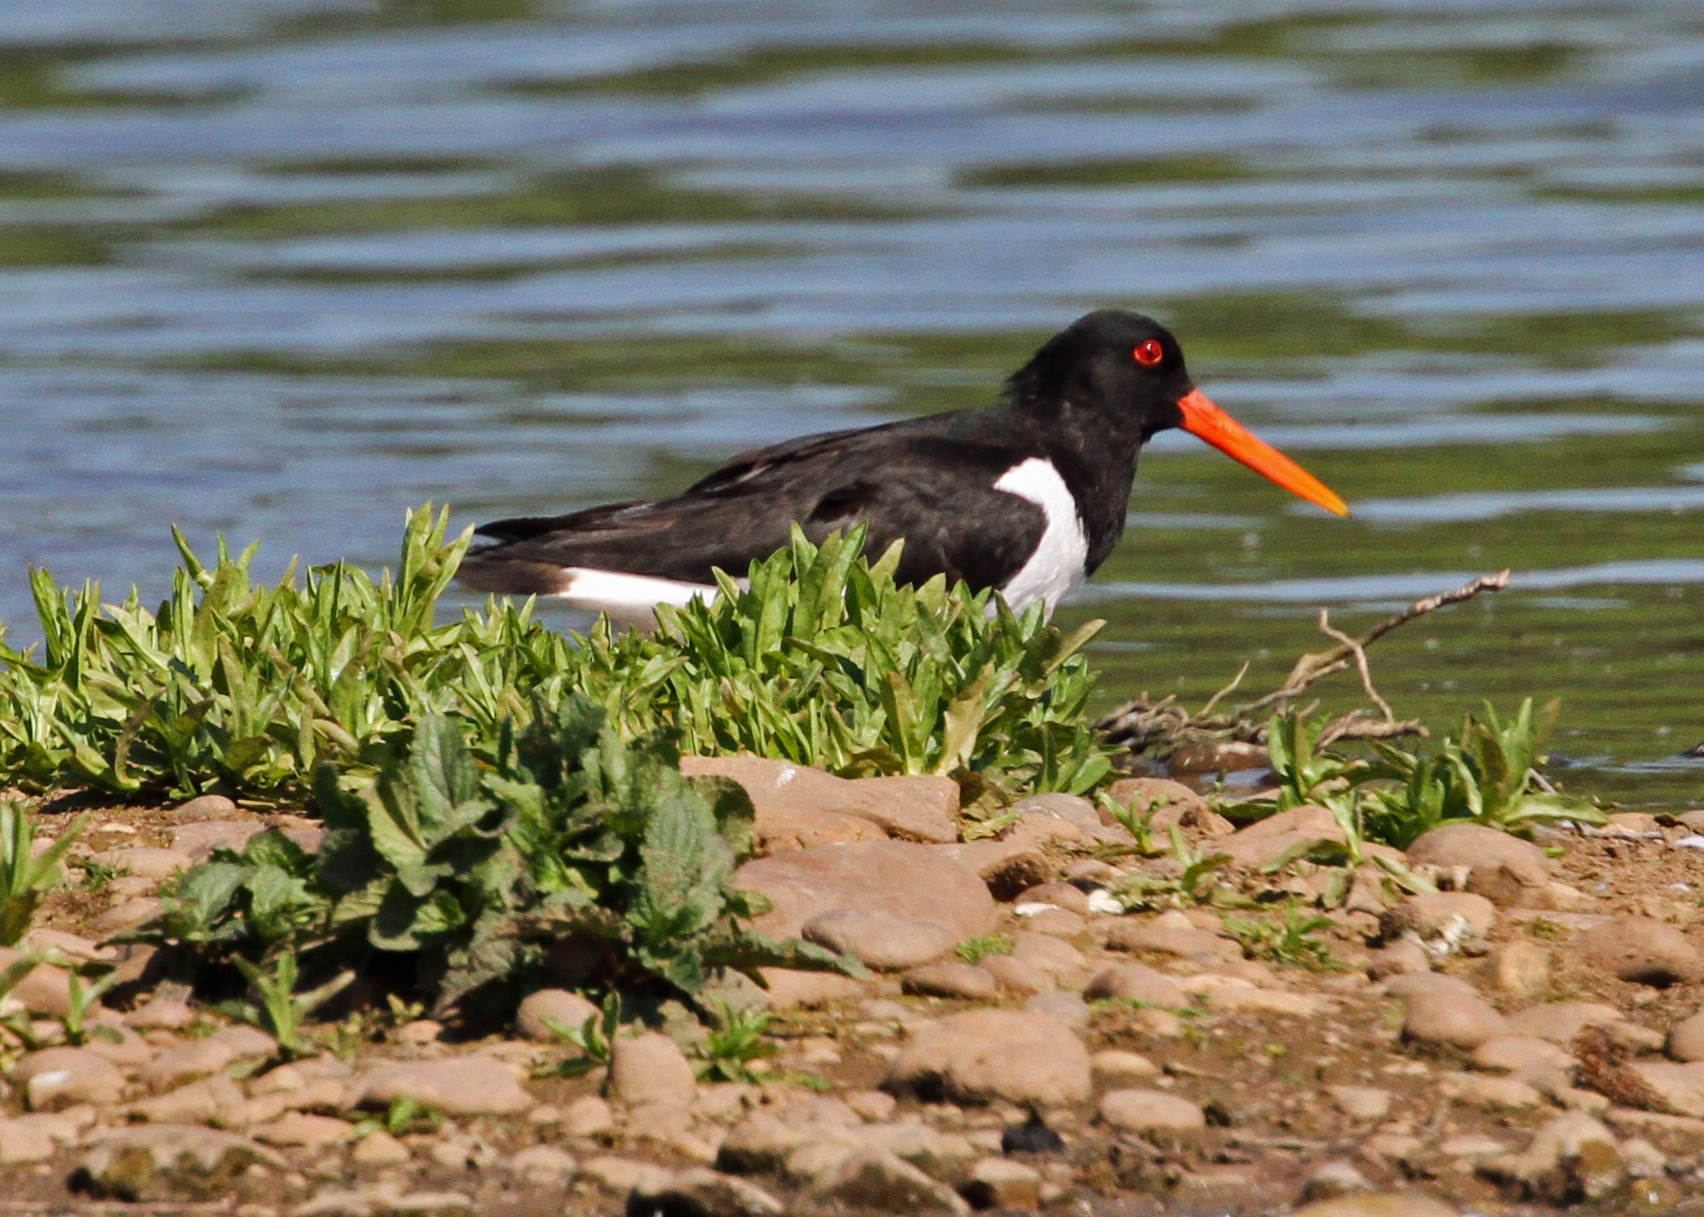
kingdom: Animalia
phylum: Chordata
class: Aves
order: Charadriiformes
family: Haematopodidae
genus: Haematopus
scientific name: Haematopus ostralegus
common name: Eurasian oystercatcher
